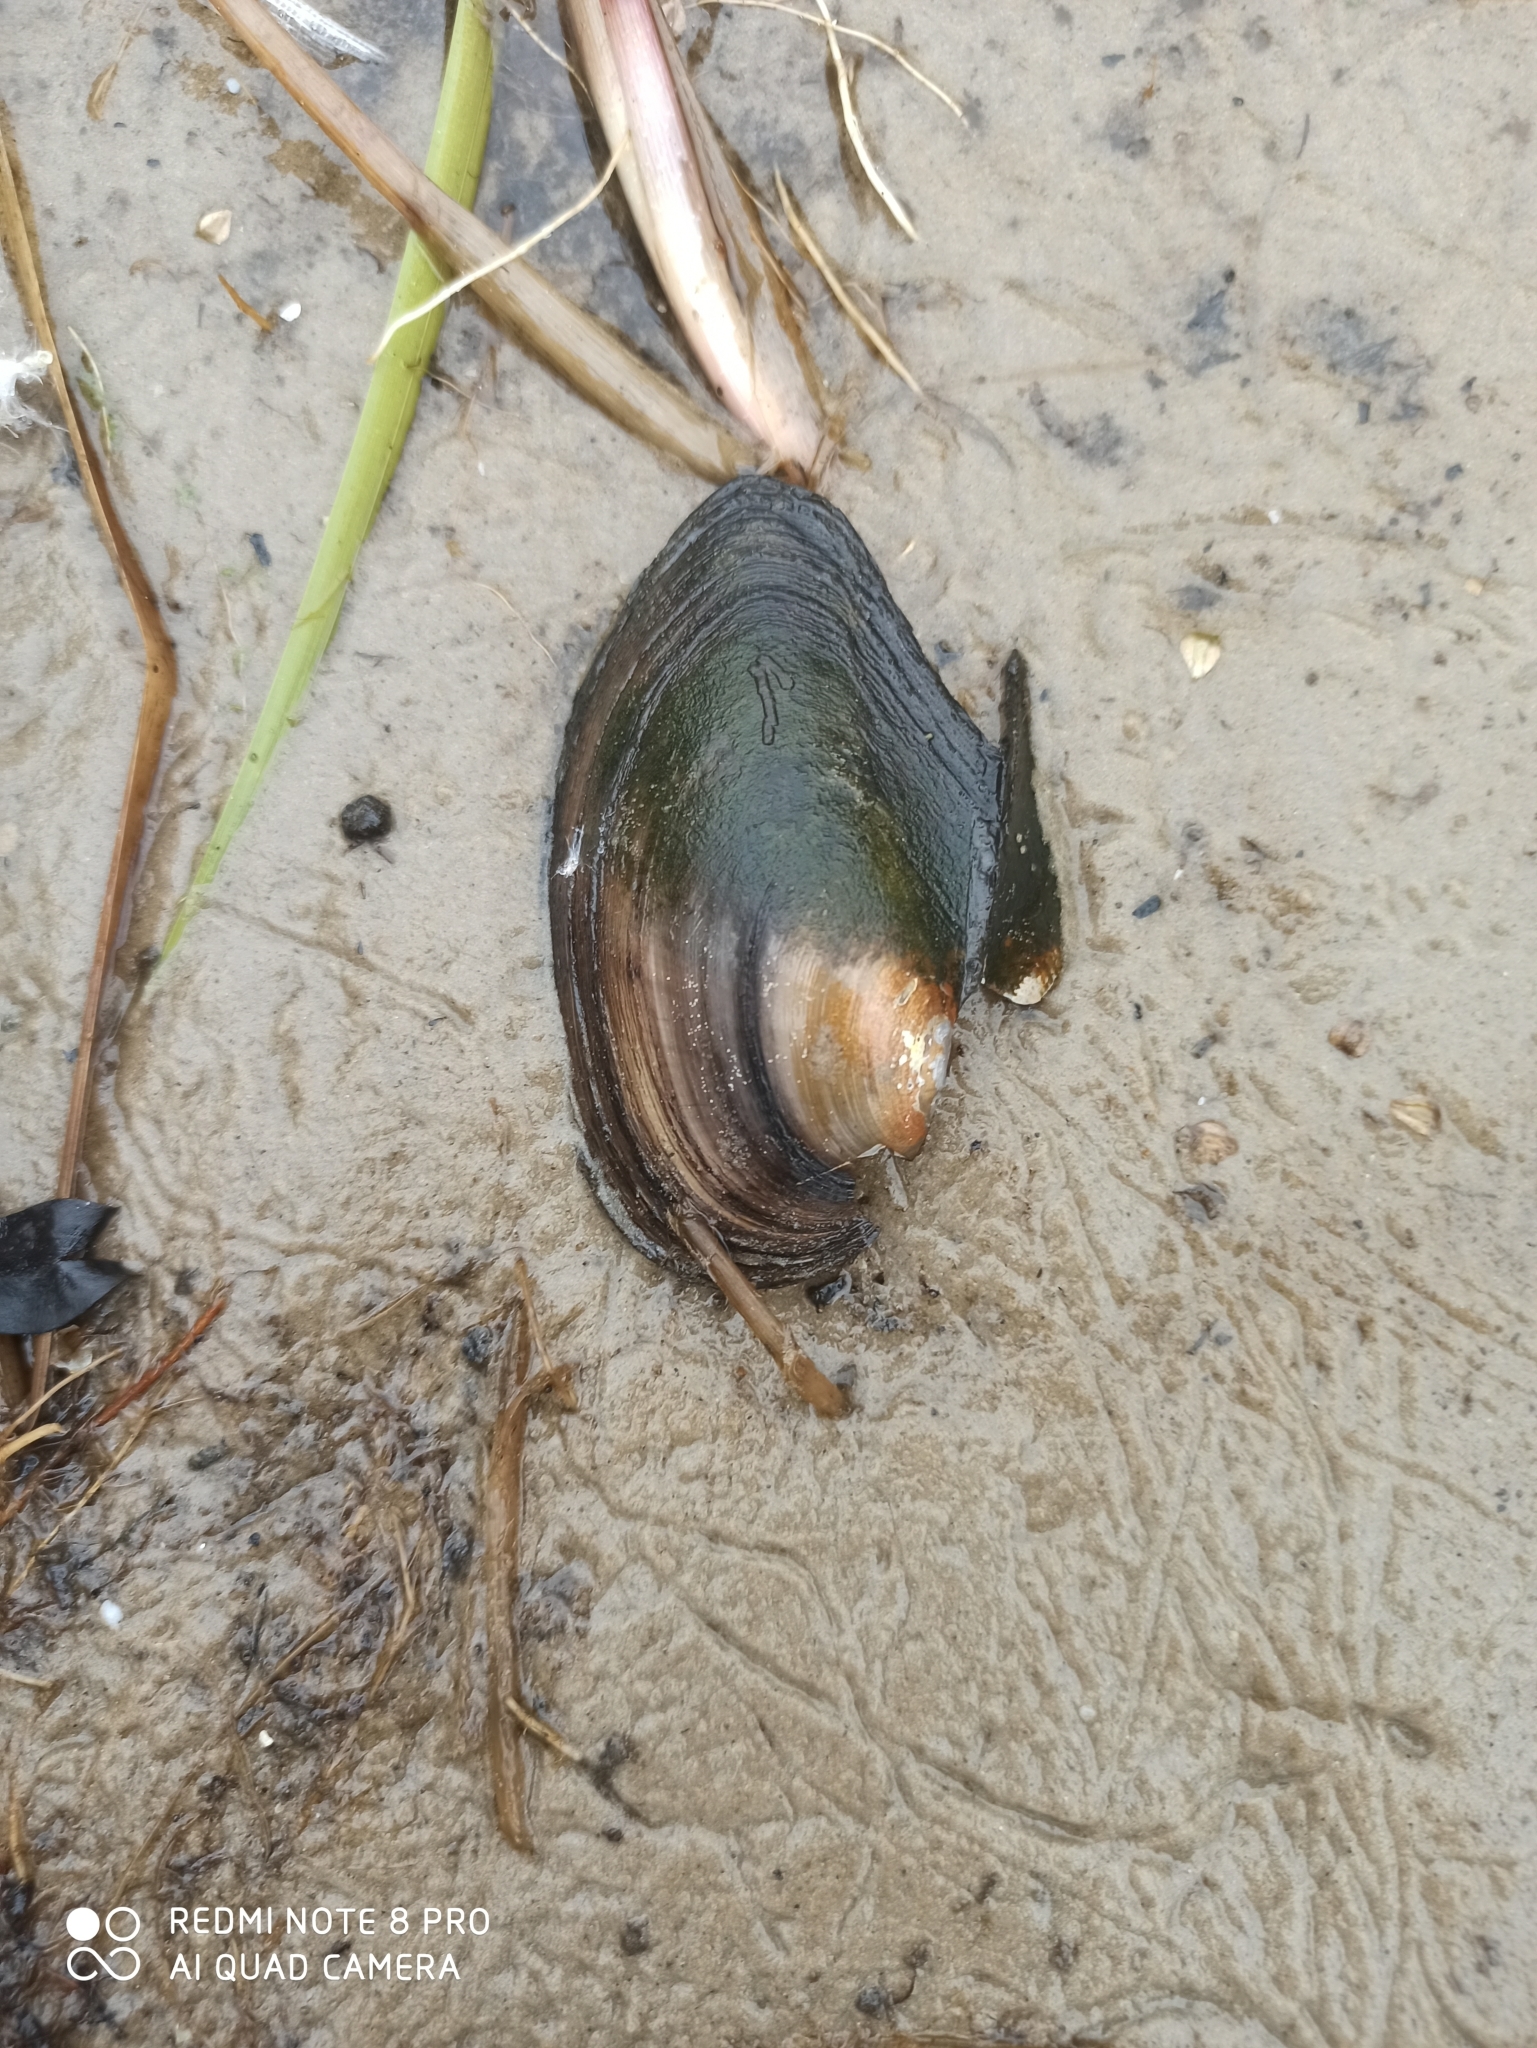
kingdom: Animalia
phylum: Mollusca
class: Bivalvia
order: Unionida
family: Unionidae
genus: Anodonta
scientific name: Anodonta anatina
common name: Duck mussel
